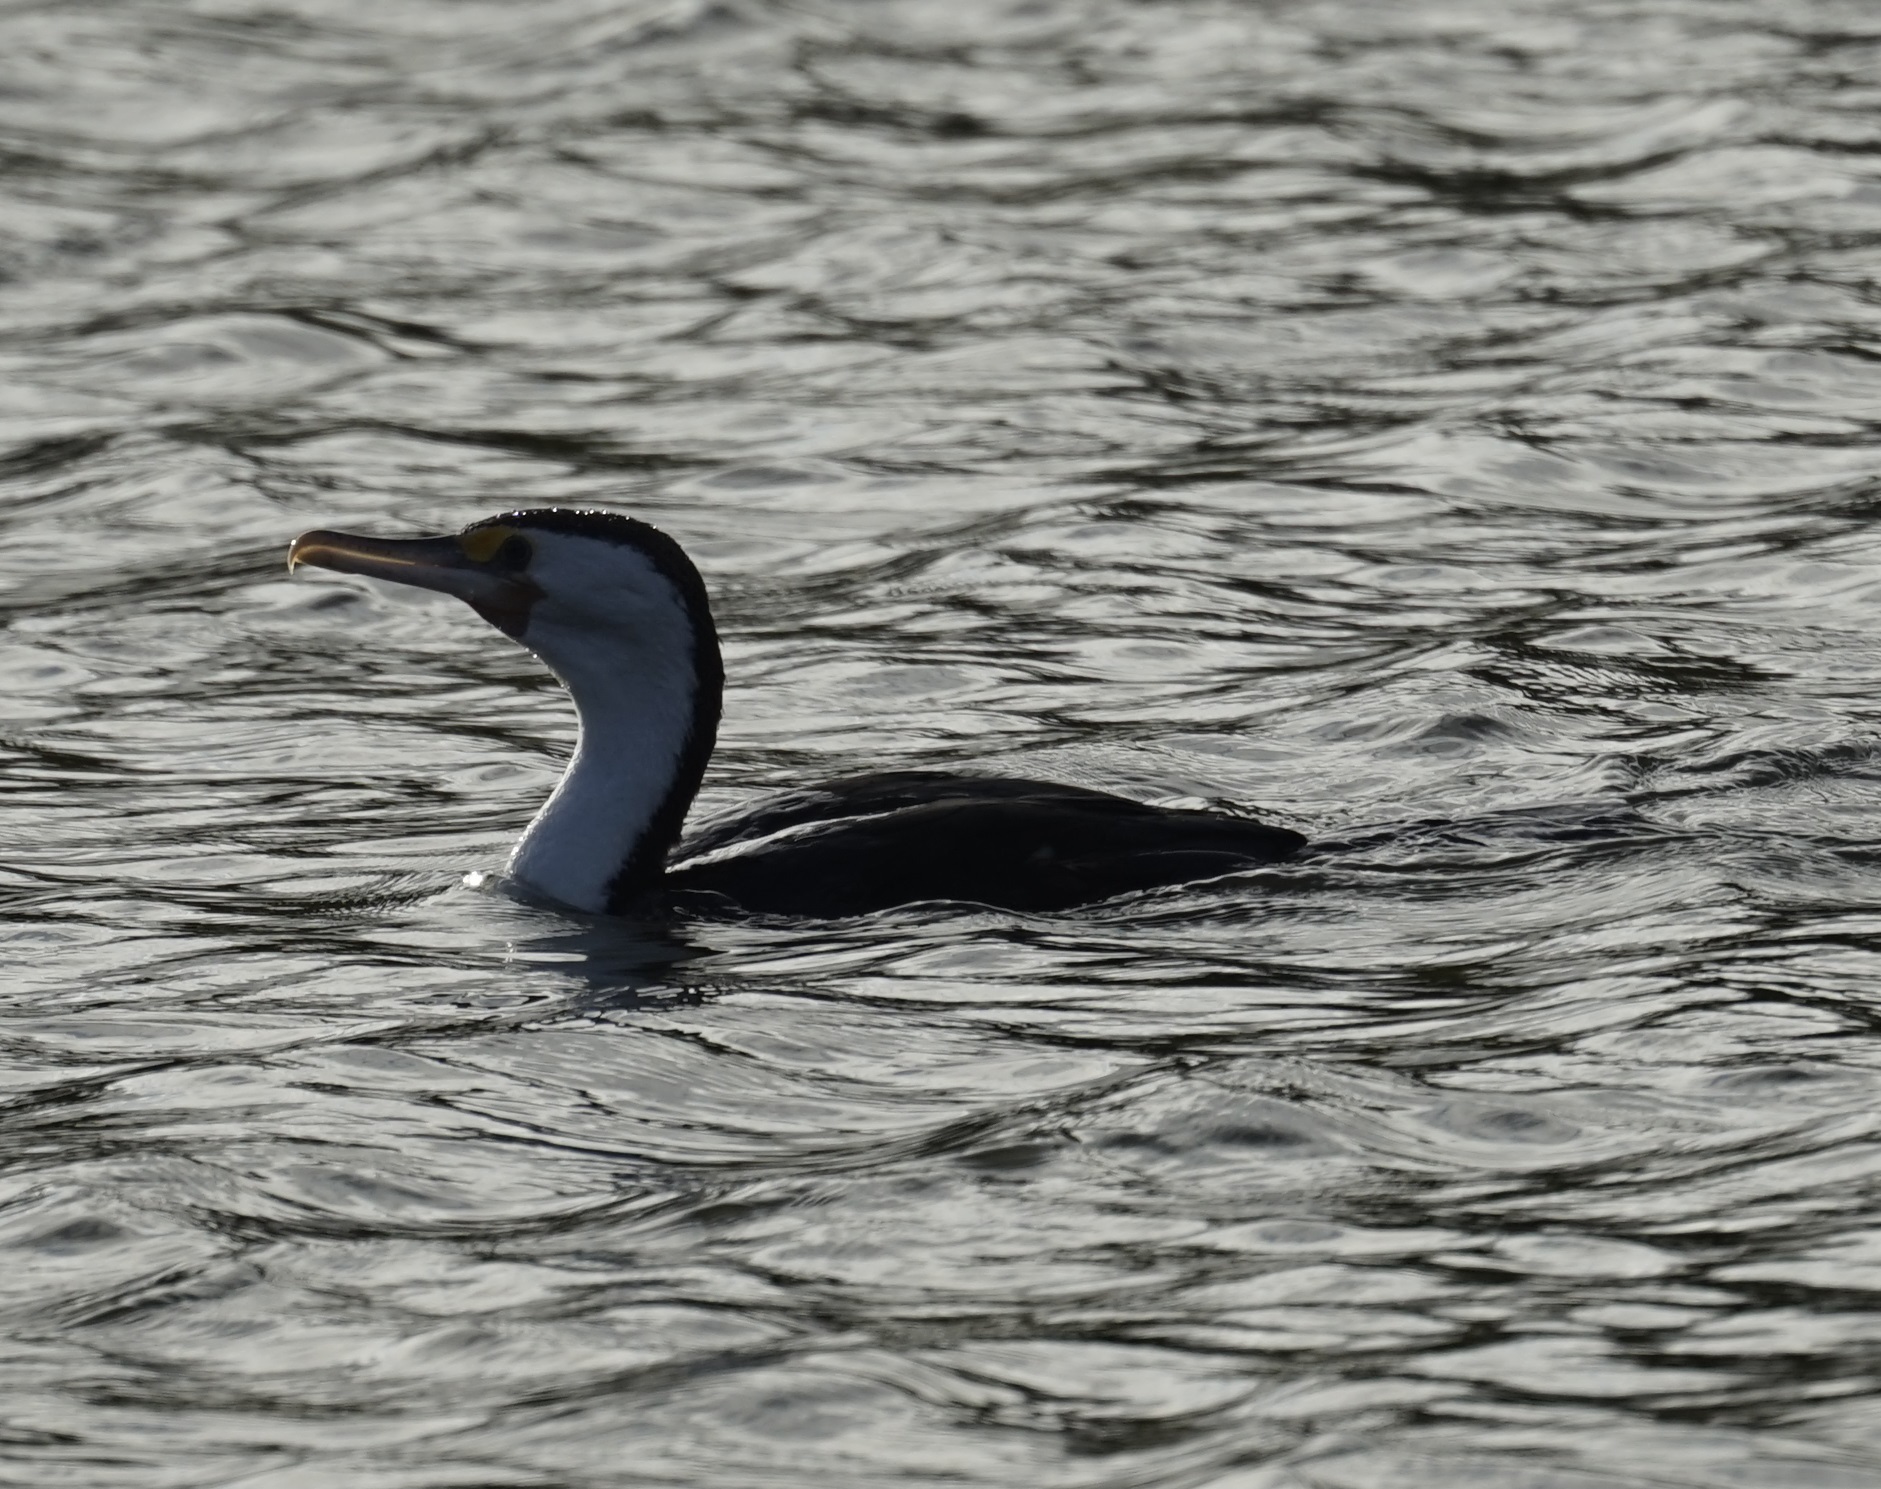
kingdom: Animalia
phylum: Chordata
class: Aves
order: Suliformes
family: Phalacrocoracidae
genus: Phalacrocorax
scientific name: Phalacrocorax varius
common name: Pied cormorant
